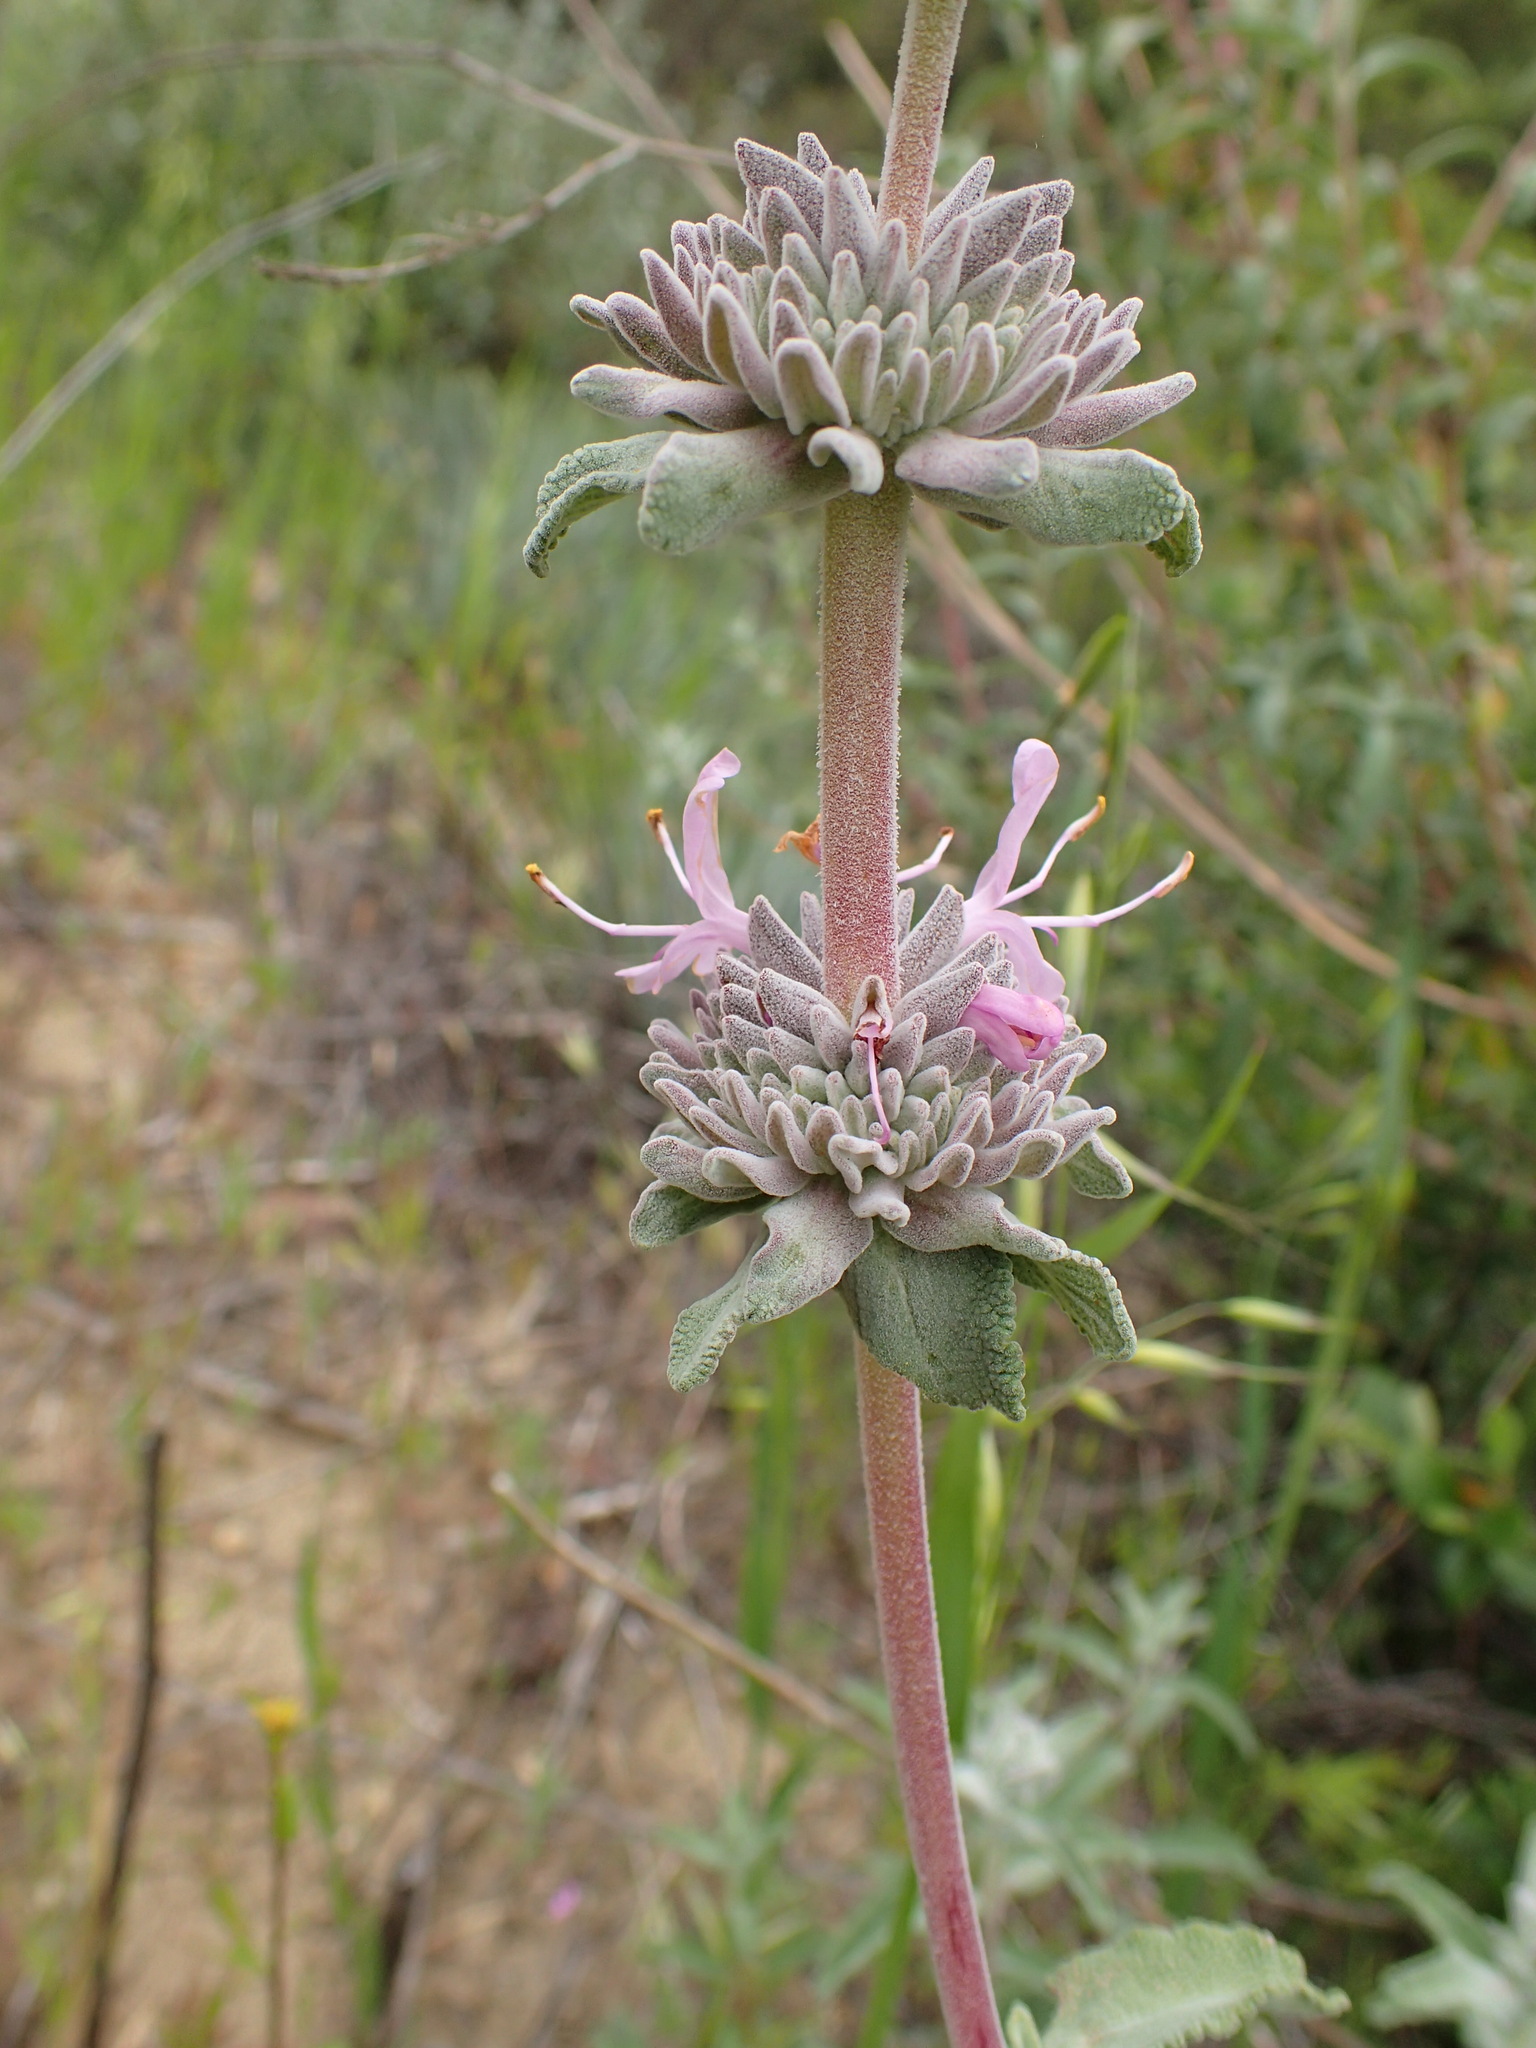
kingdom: Plantae
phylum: Tracheophyta
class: Magnoliopsida
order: Lamiales
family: Lamiaceae
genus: Salvia
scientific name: Salvia leucophylla
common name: Purple sage
